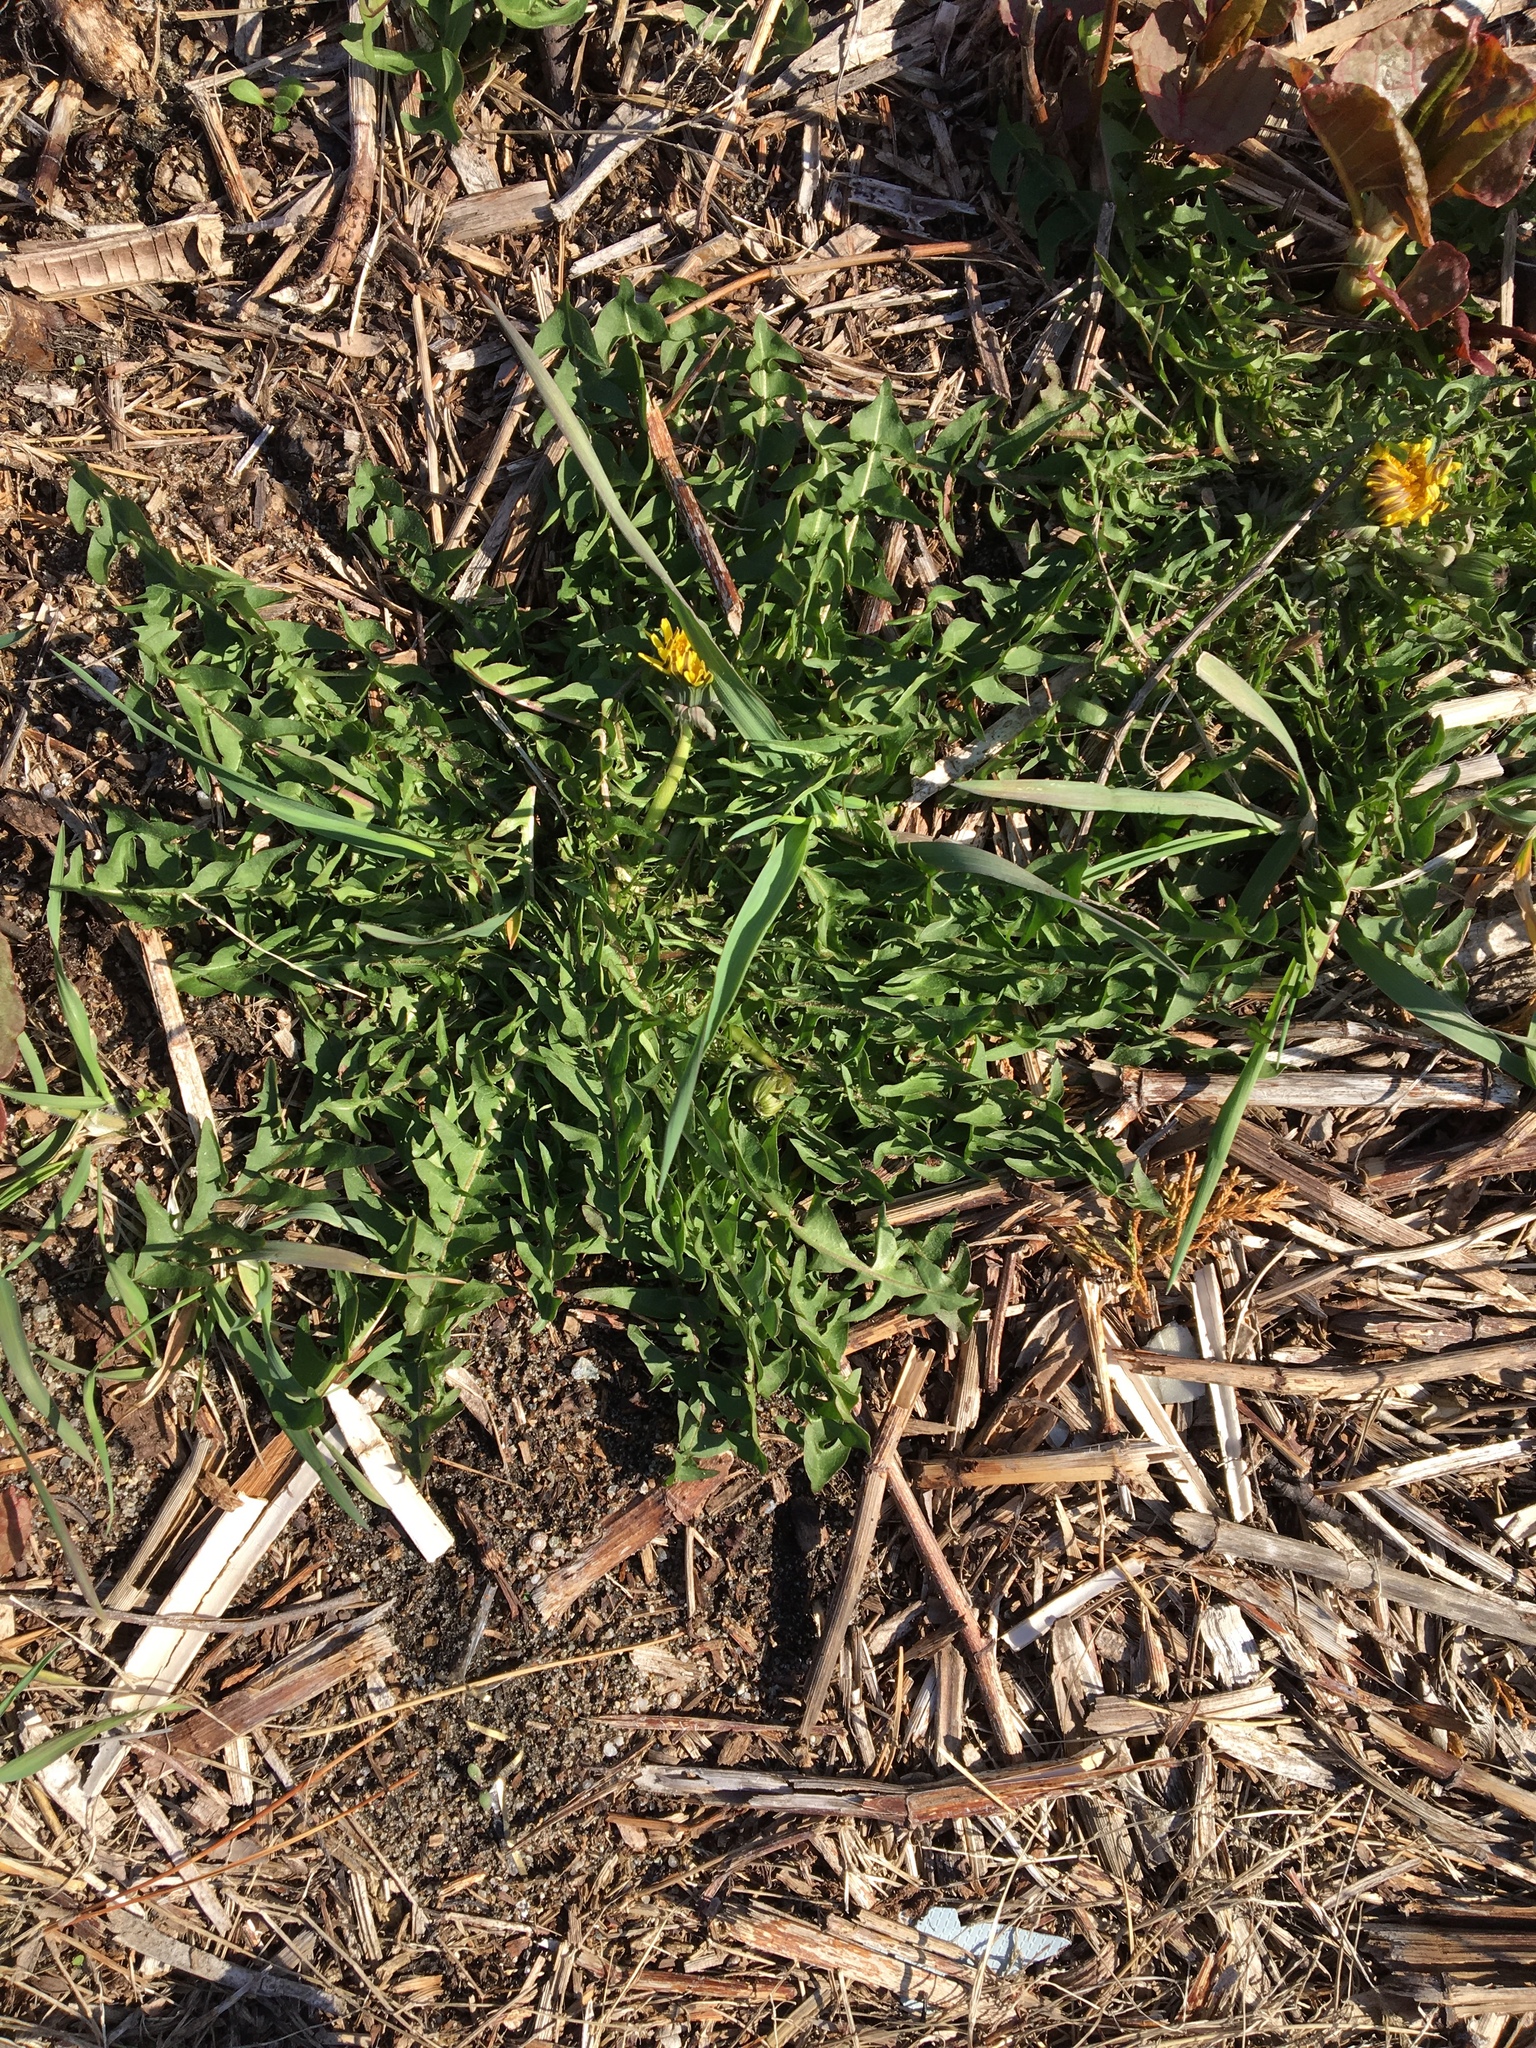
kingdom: Plantae
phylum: Tracheophyta
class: Magnoliopsida
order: Asterales
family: Asteraceae
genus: Taraxacum
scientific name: Taraxacum officinale
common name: Common dandelion
